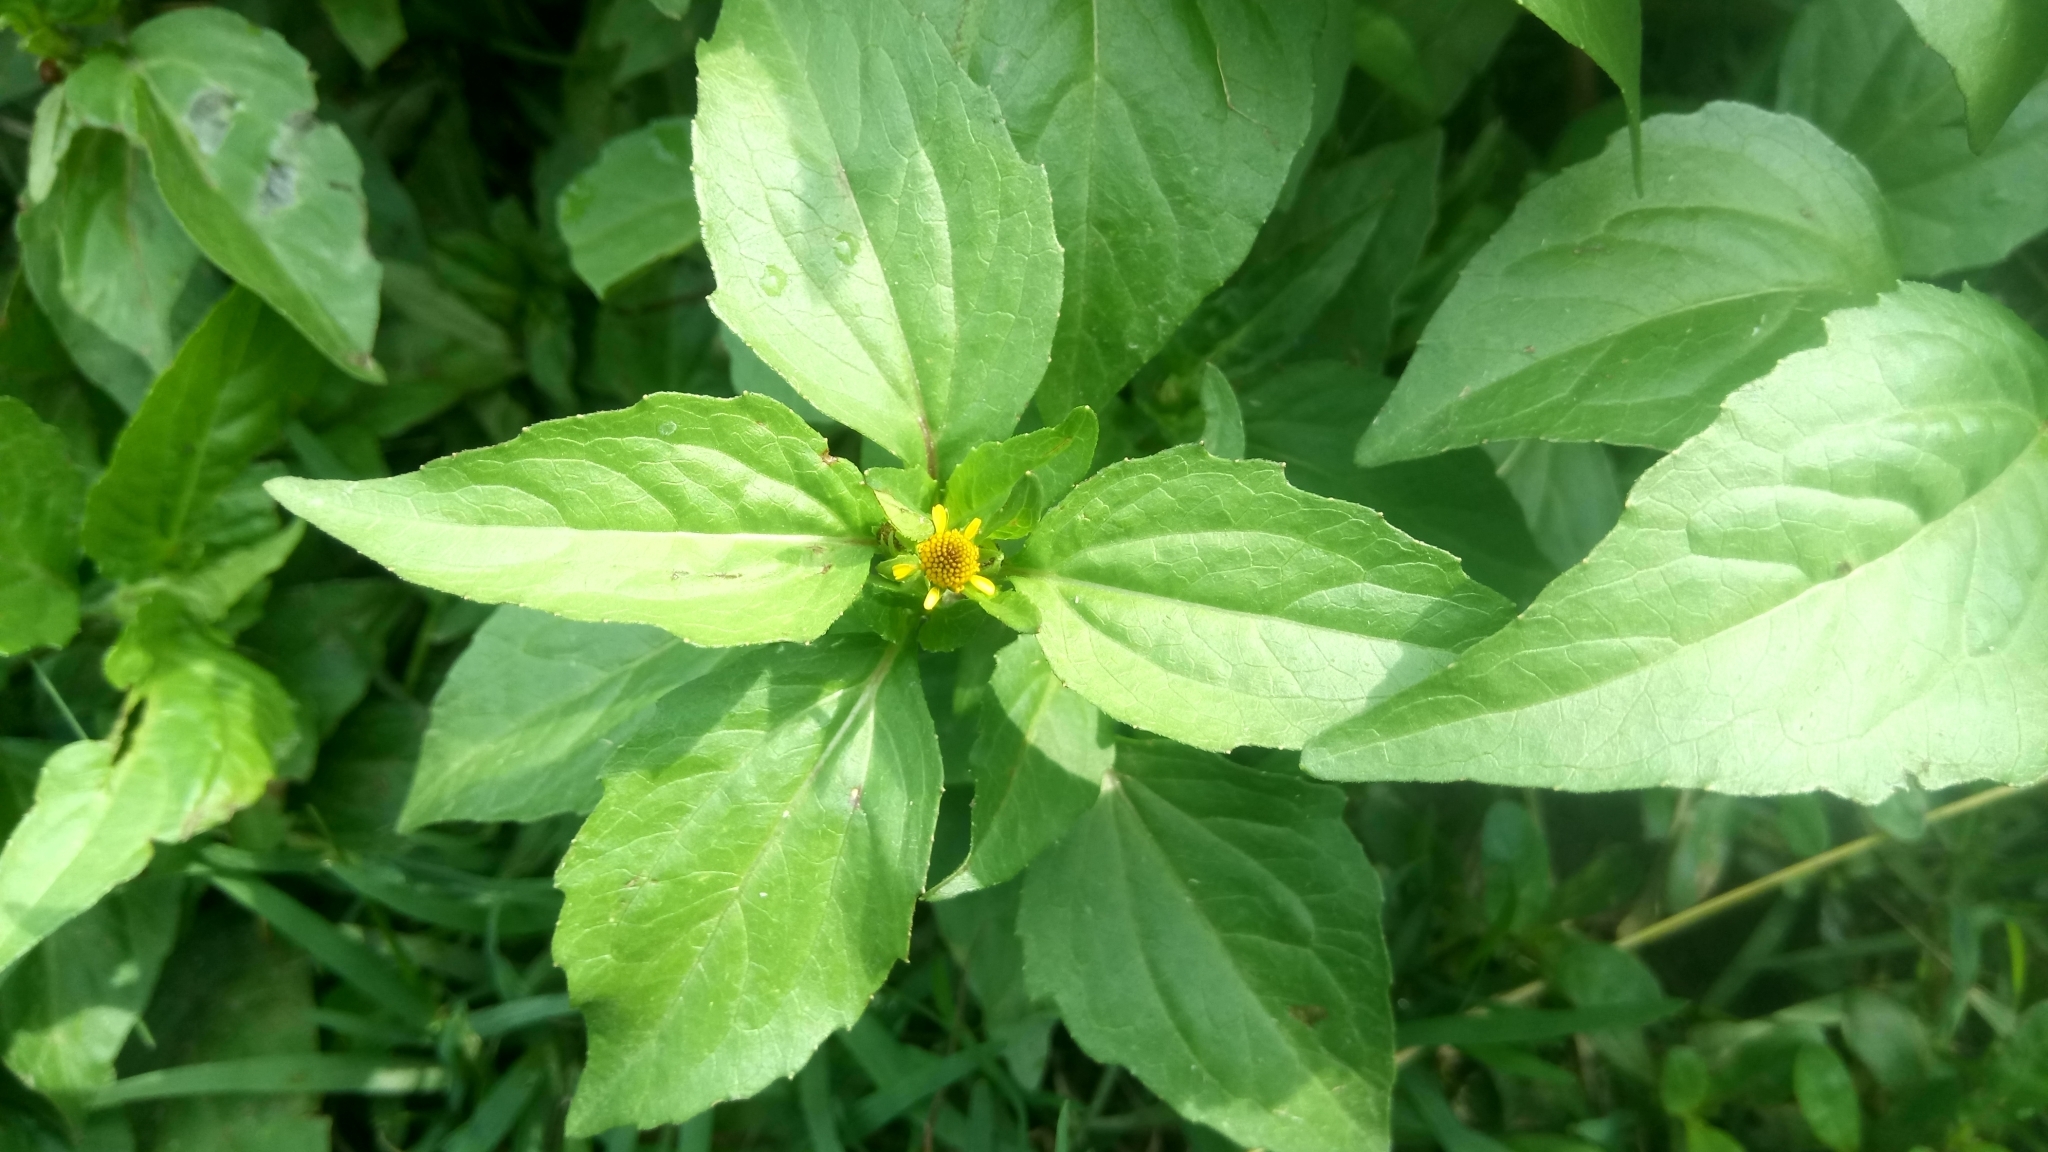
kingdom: Plantae
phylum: Tracheophyta
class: Magnoliopsida
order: Asterales
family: Asteraceae
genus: Acmella
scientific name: Acmella uliginosa
